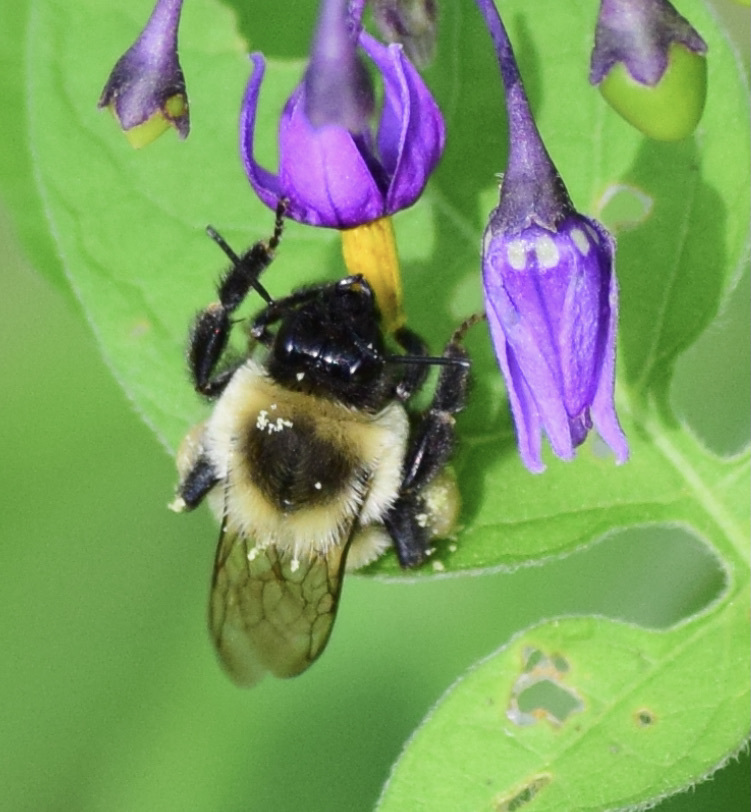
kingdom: Animalia
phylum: Arthropoda
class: Insecta
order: Hymenoptera
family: Apidae
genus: Bombus
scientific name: Bombus impatiens
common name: Common eastern bumble bee
